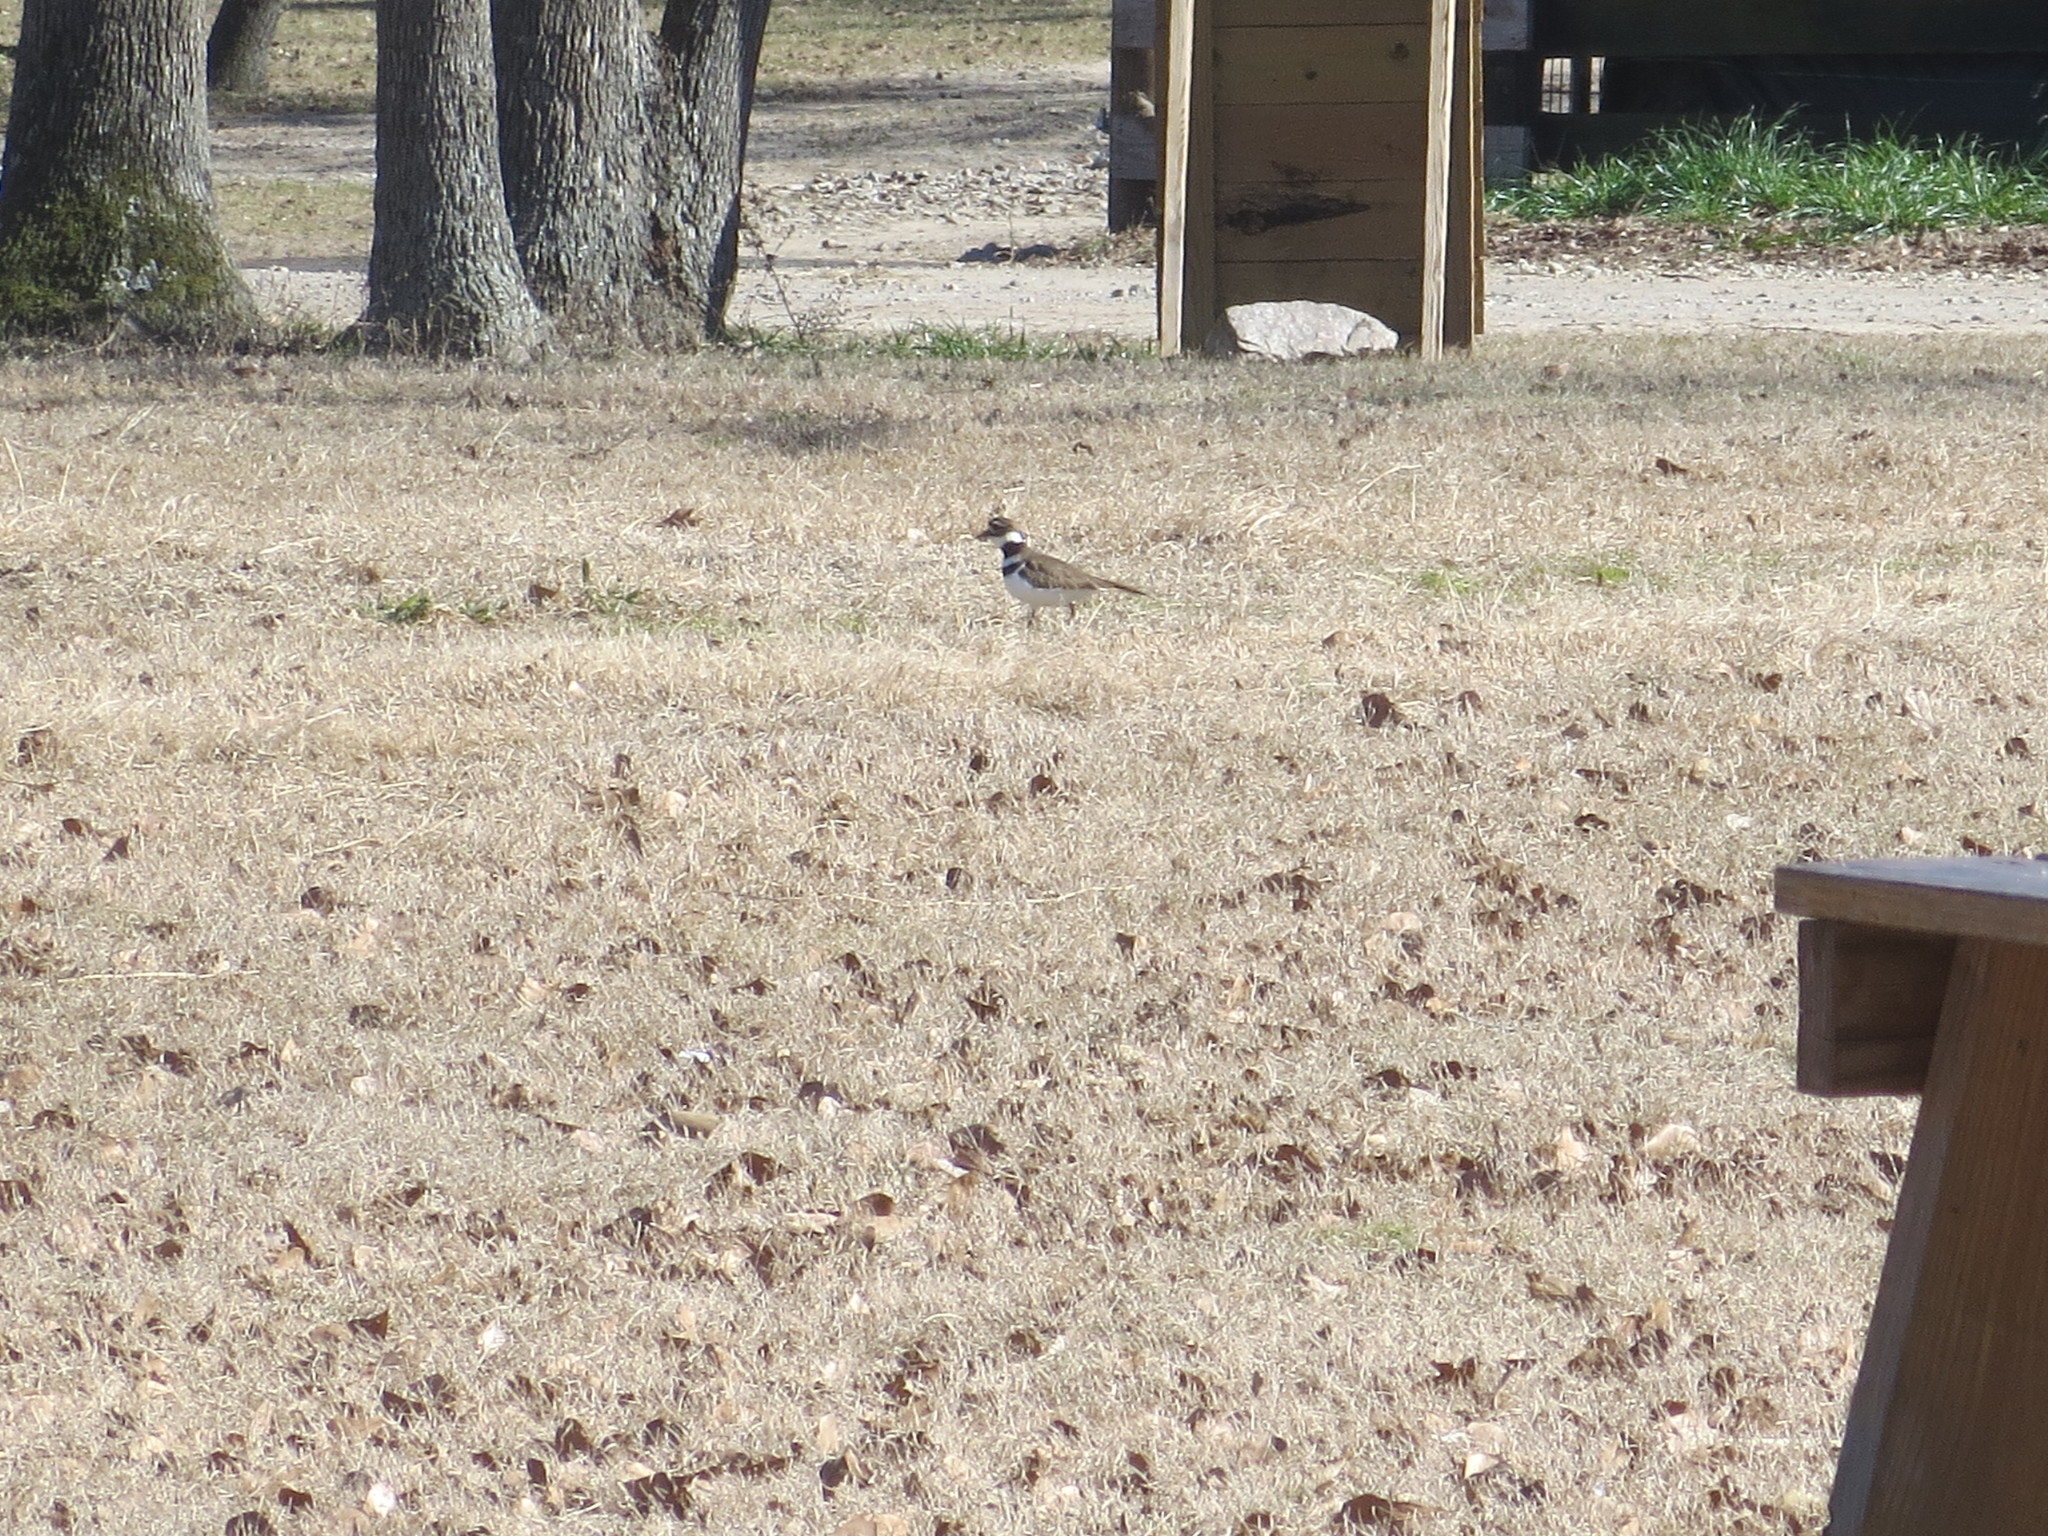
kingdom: Animalia
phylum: Chordata
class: Aves
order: Charadriiformes
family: Charadriidae
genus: Charadrius
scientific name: Charadrius vociferus
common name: Killdeer
